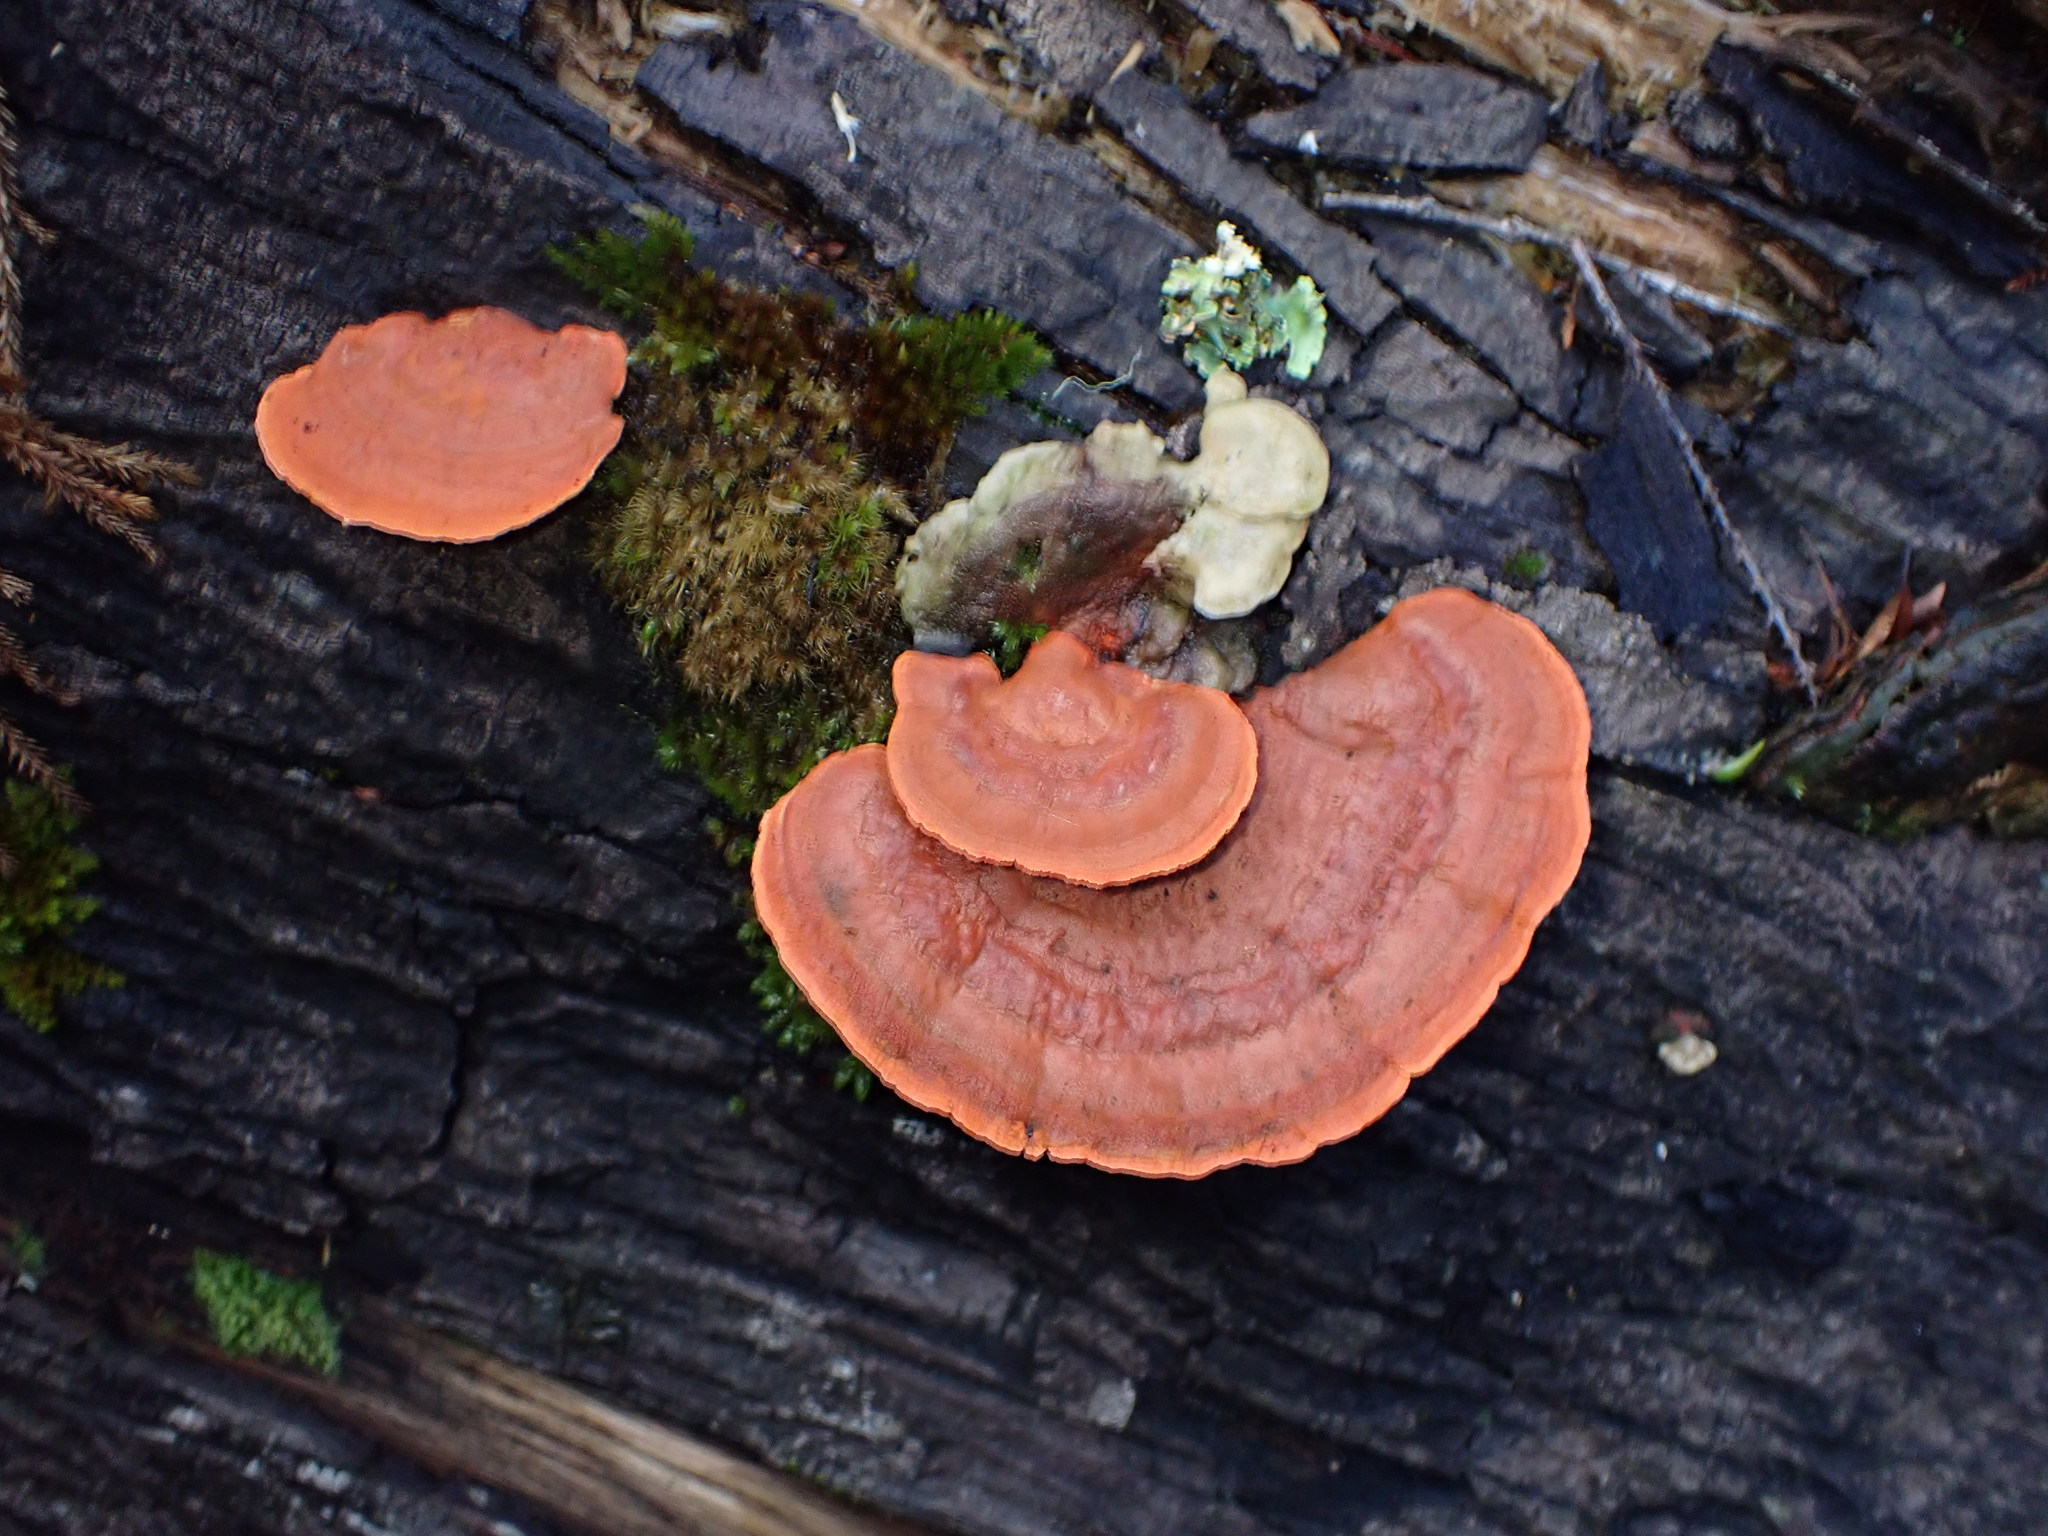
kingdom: Fungi
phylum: Basidiomycota
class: Agaricomycetes
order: Polyporales
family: Polyporaceae
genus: Trametes
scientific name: Trametes coccinea
